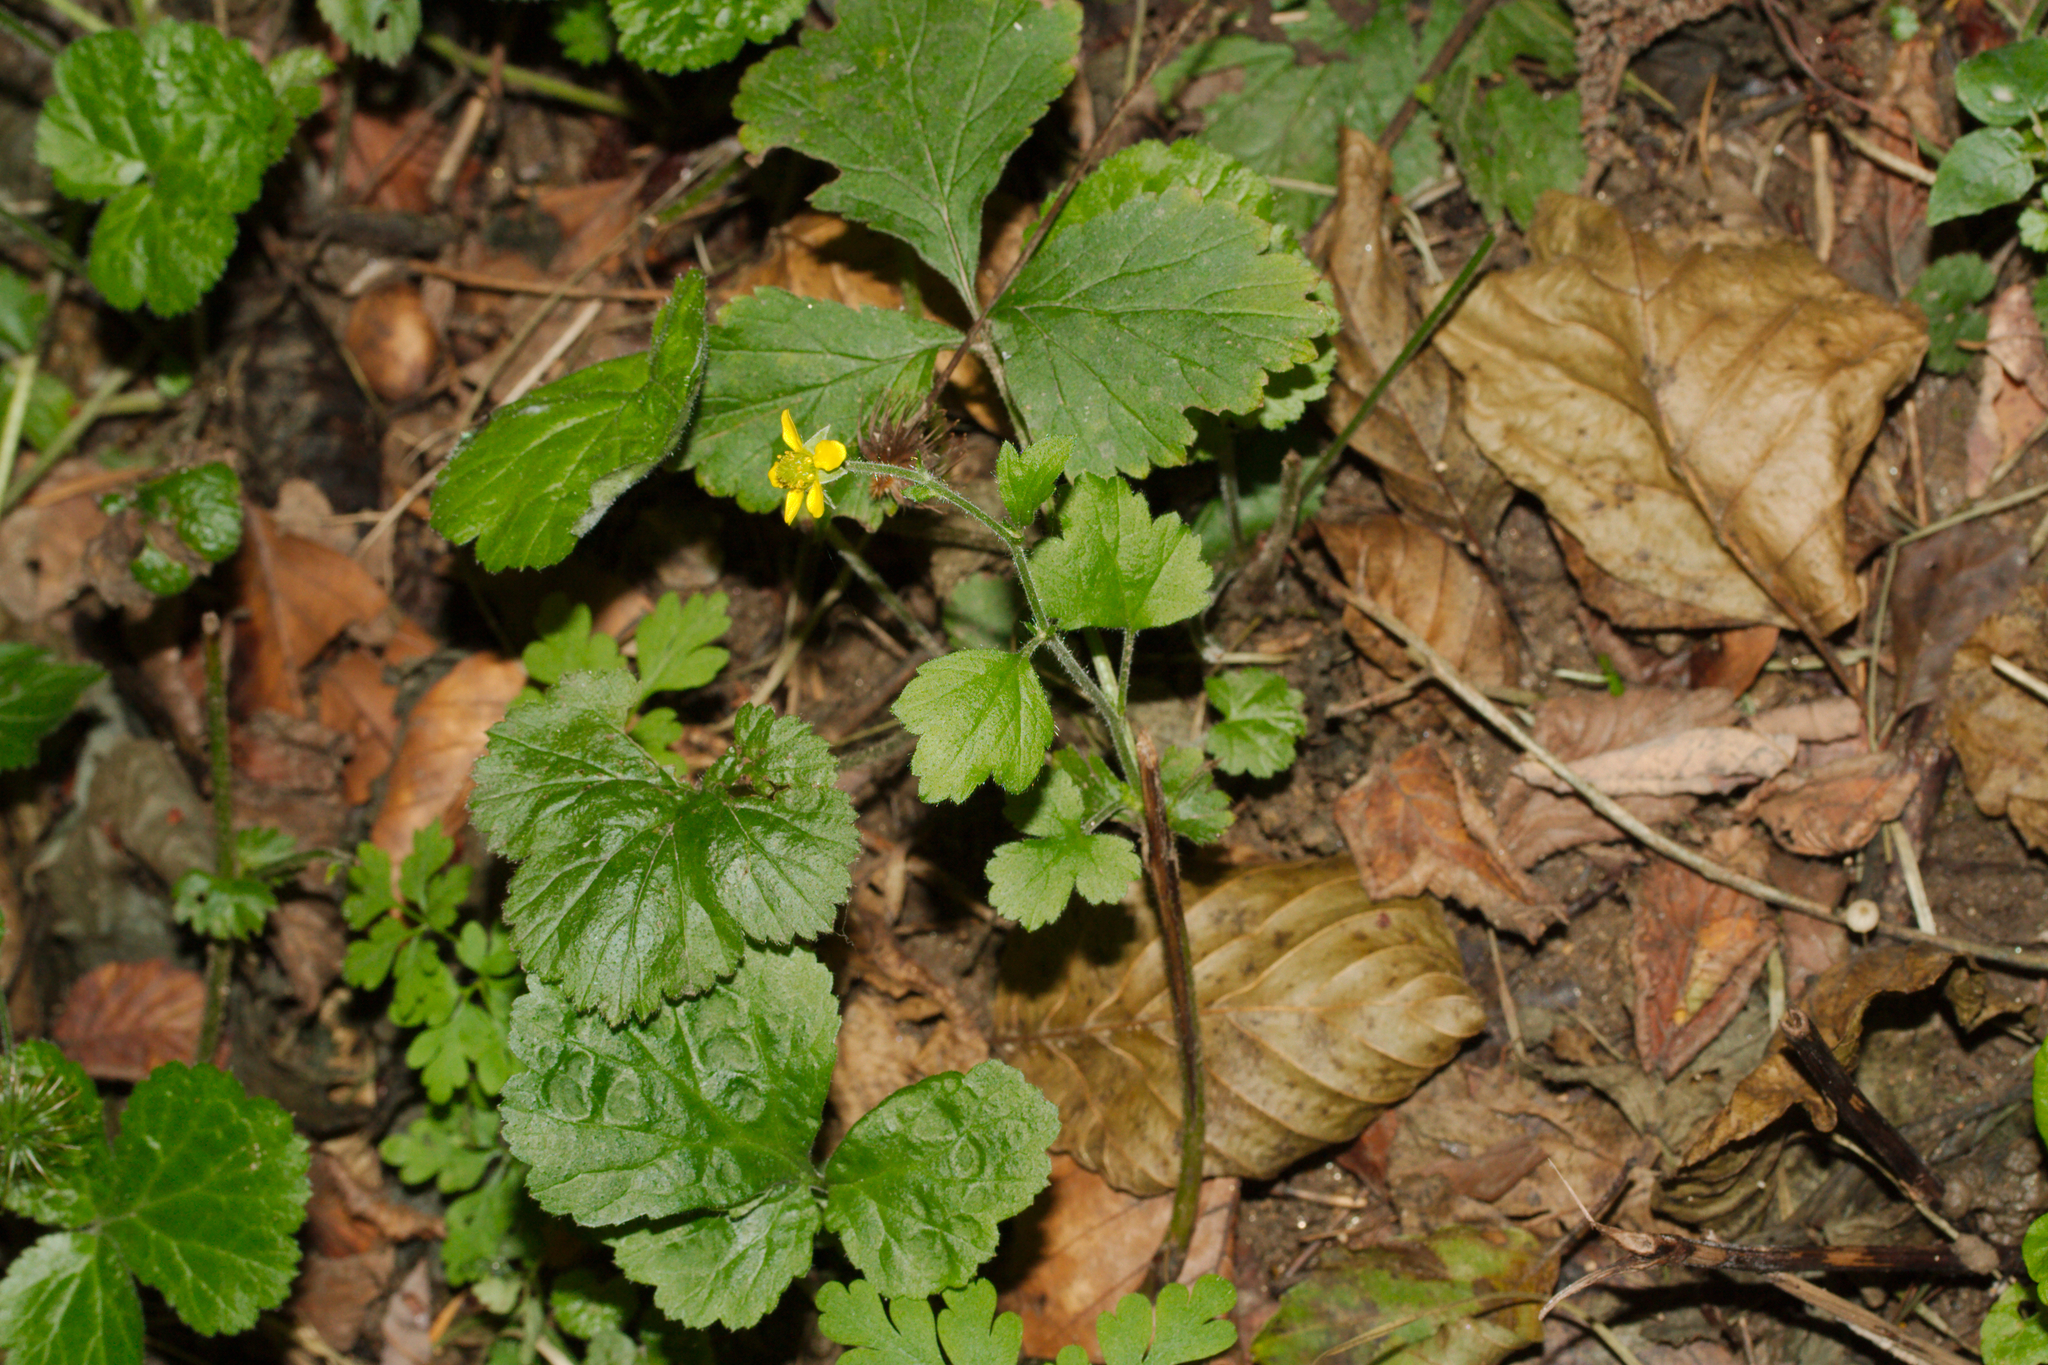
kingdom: Plantae
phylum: Tracheophyta
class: Magnoliopsida
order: Rosales
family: Rosaceae
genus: Geum
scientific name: Geum urbanum
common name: Wood avens
